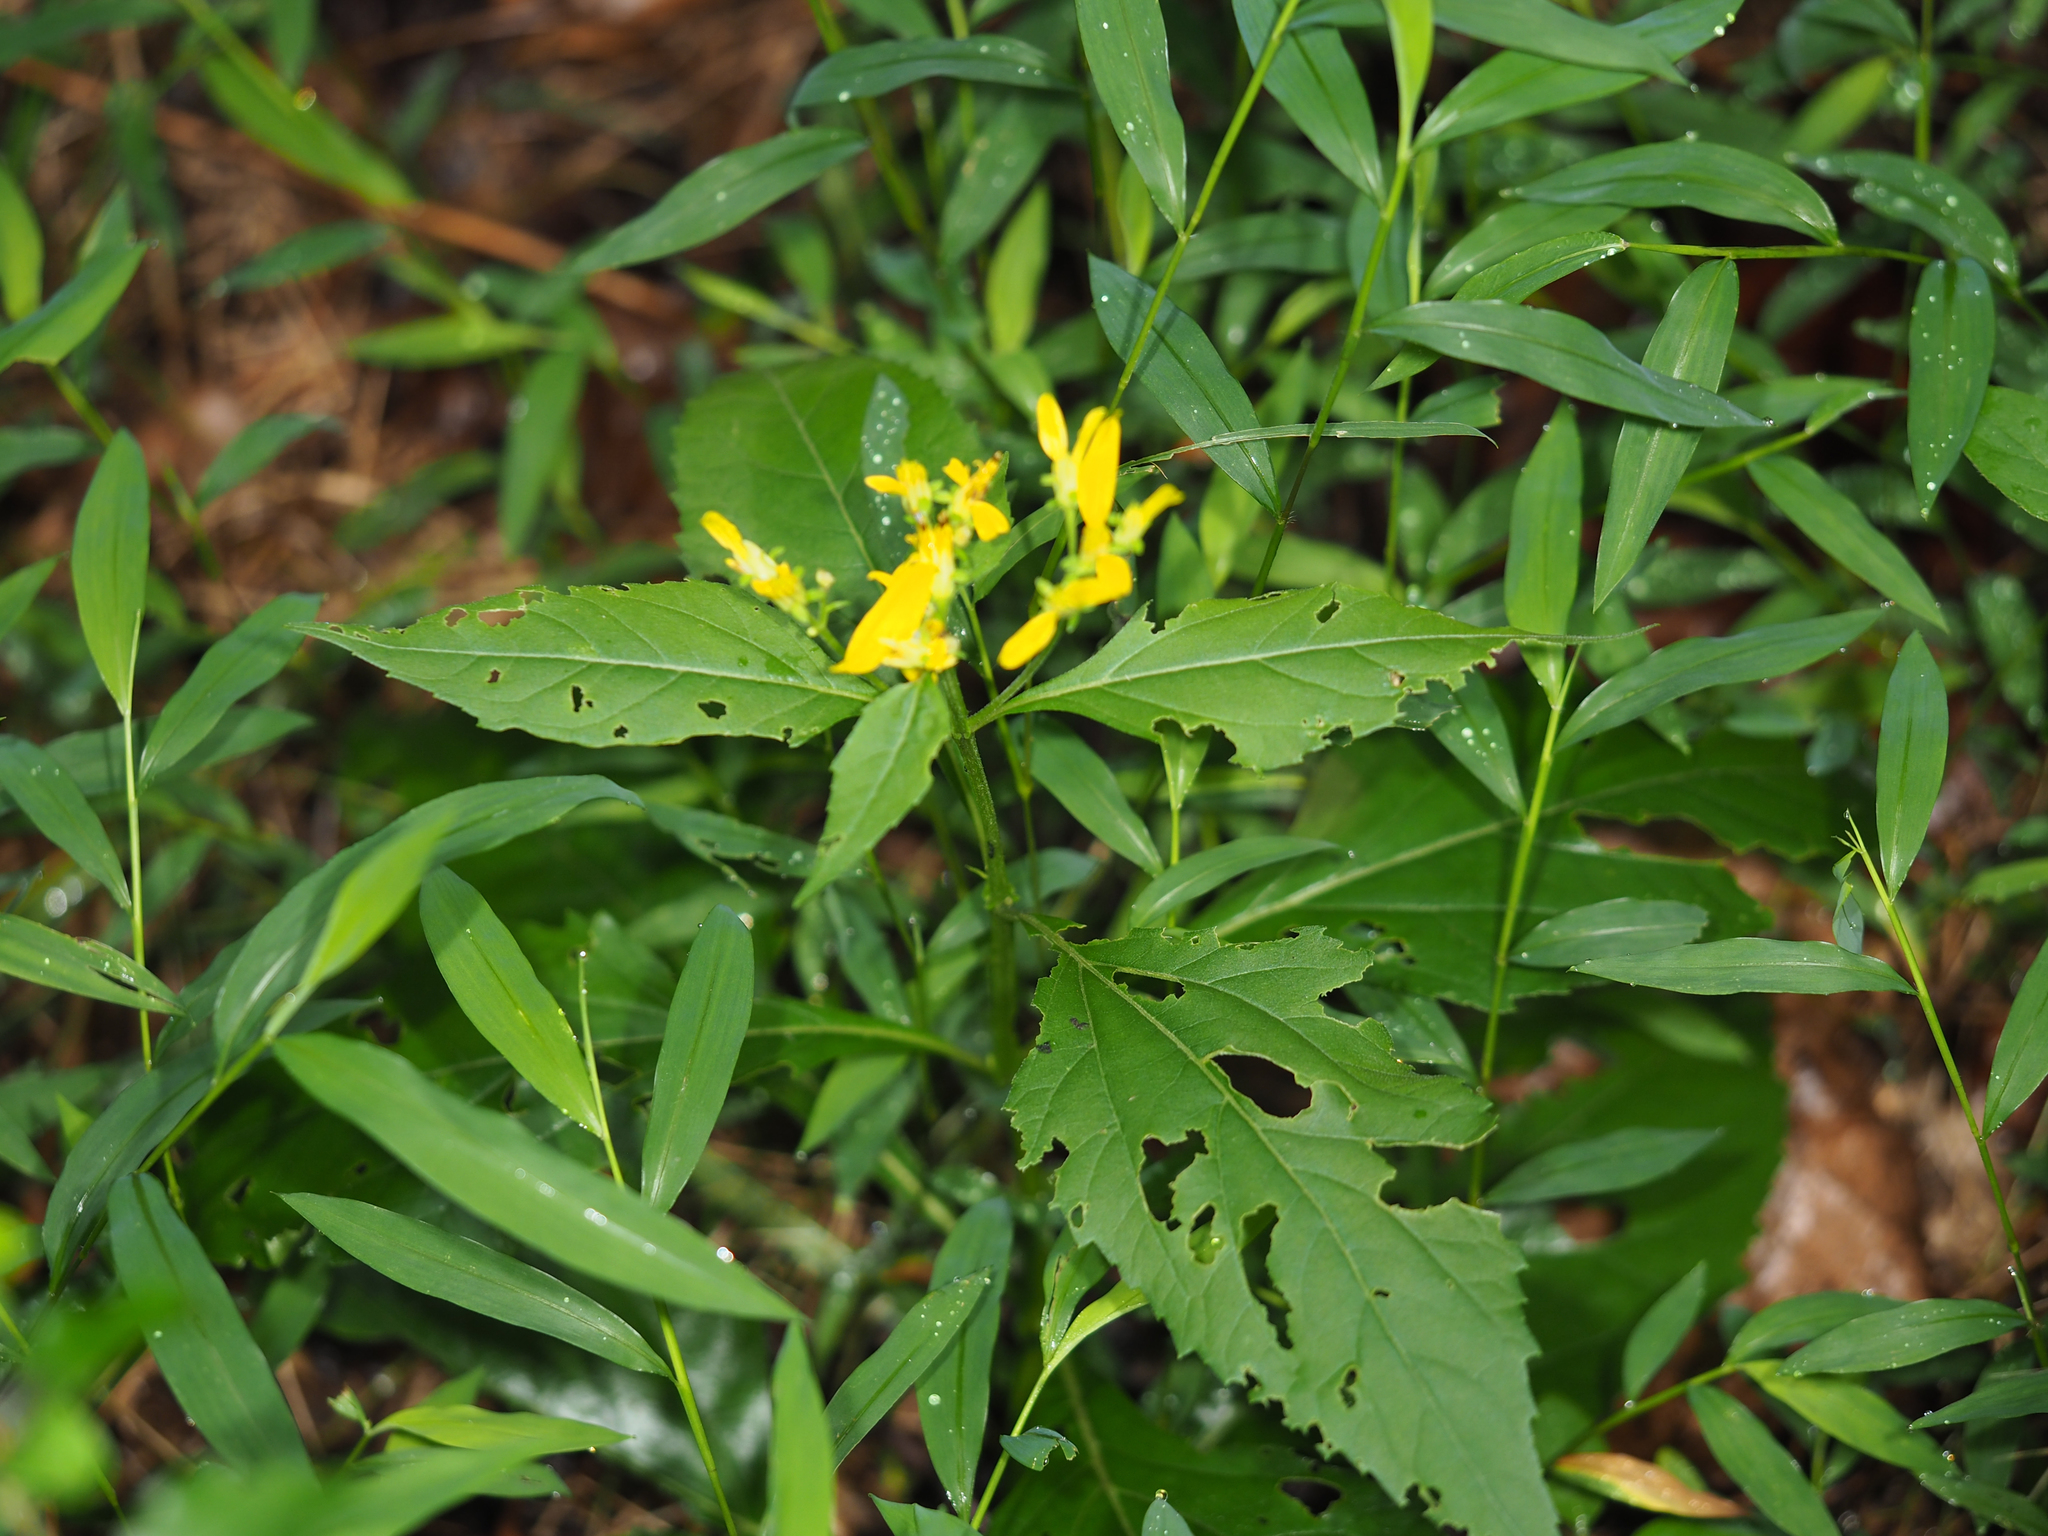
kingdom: Plantae
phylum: Tracheophyta
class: Magnoliopsida
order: Asterales
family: Asteraceae
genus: Verbesina
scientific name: Verbesina occidentalis
